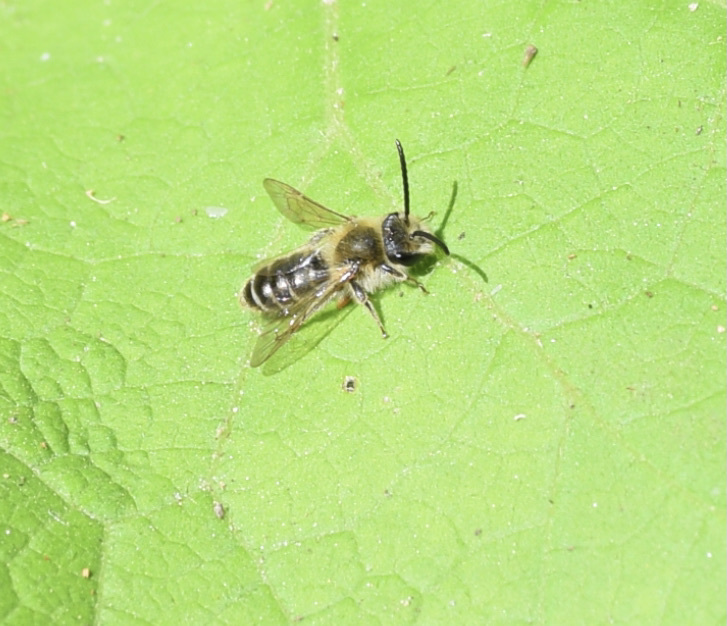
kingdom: Animalia
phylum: Arthropoda
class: Insecta
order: Hymenoptera
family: Andrenidae
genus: Andrena
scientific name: Andrena wilkella
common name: Wilke's mining bee
